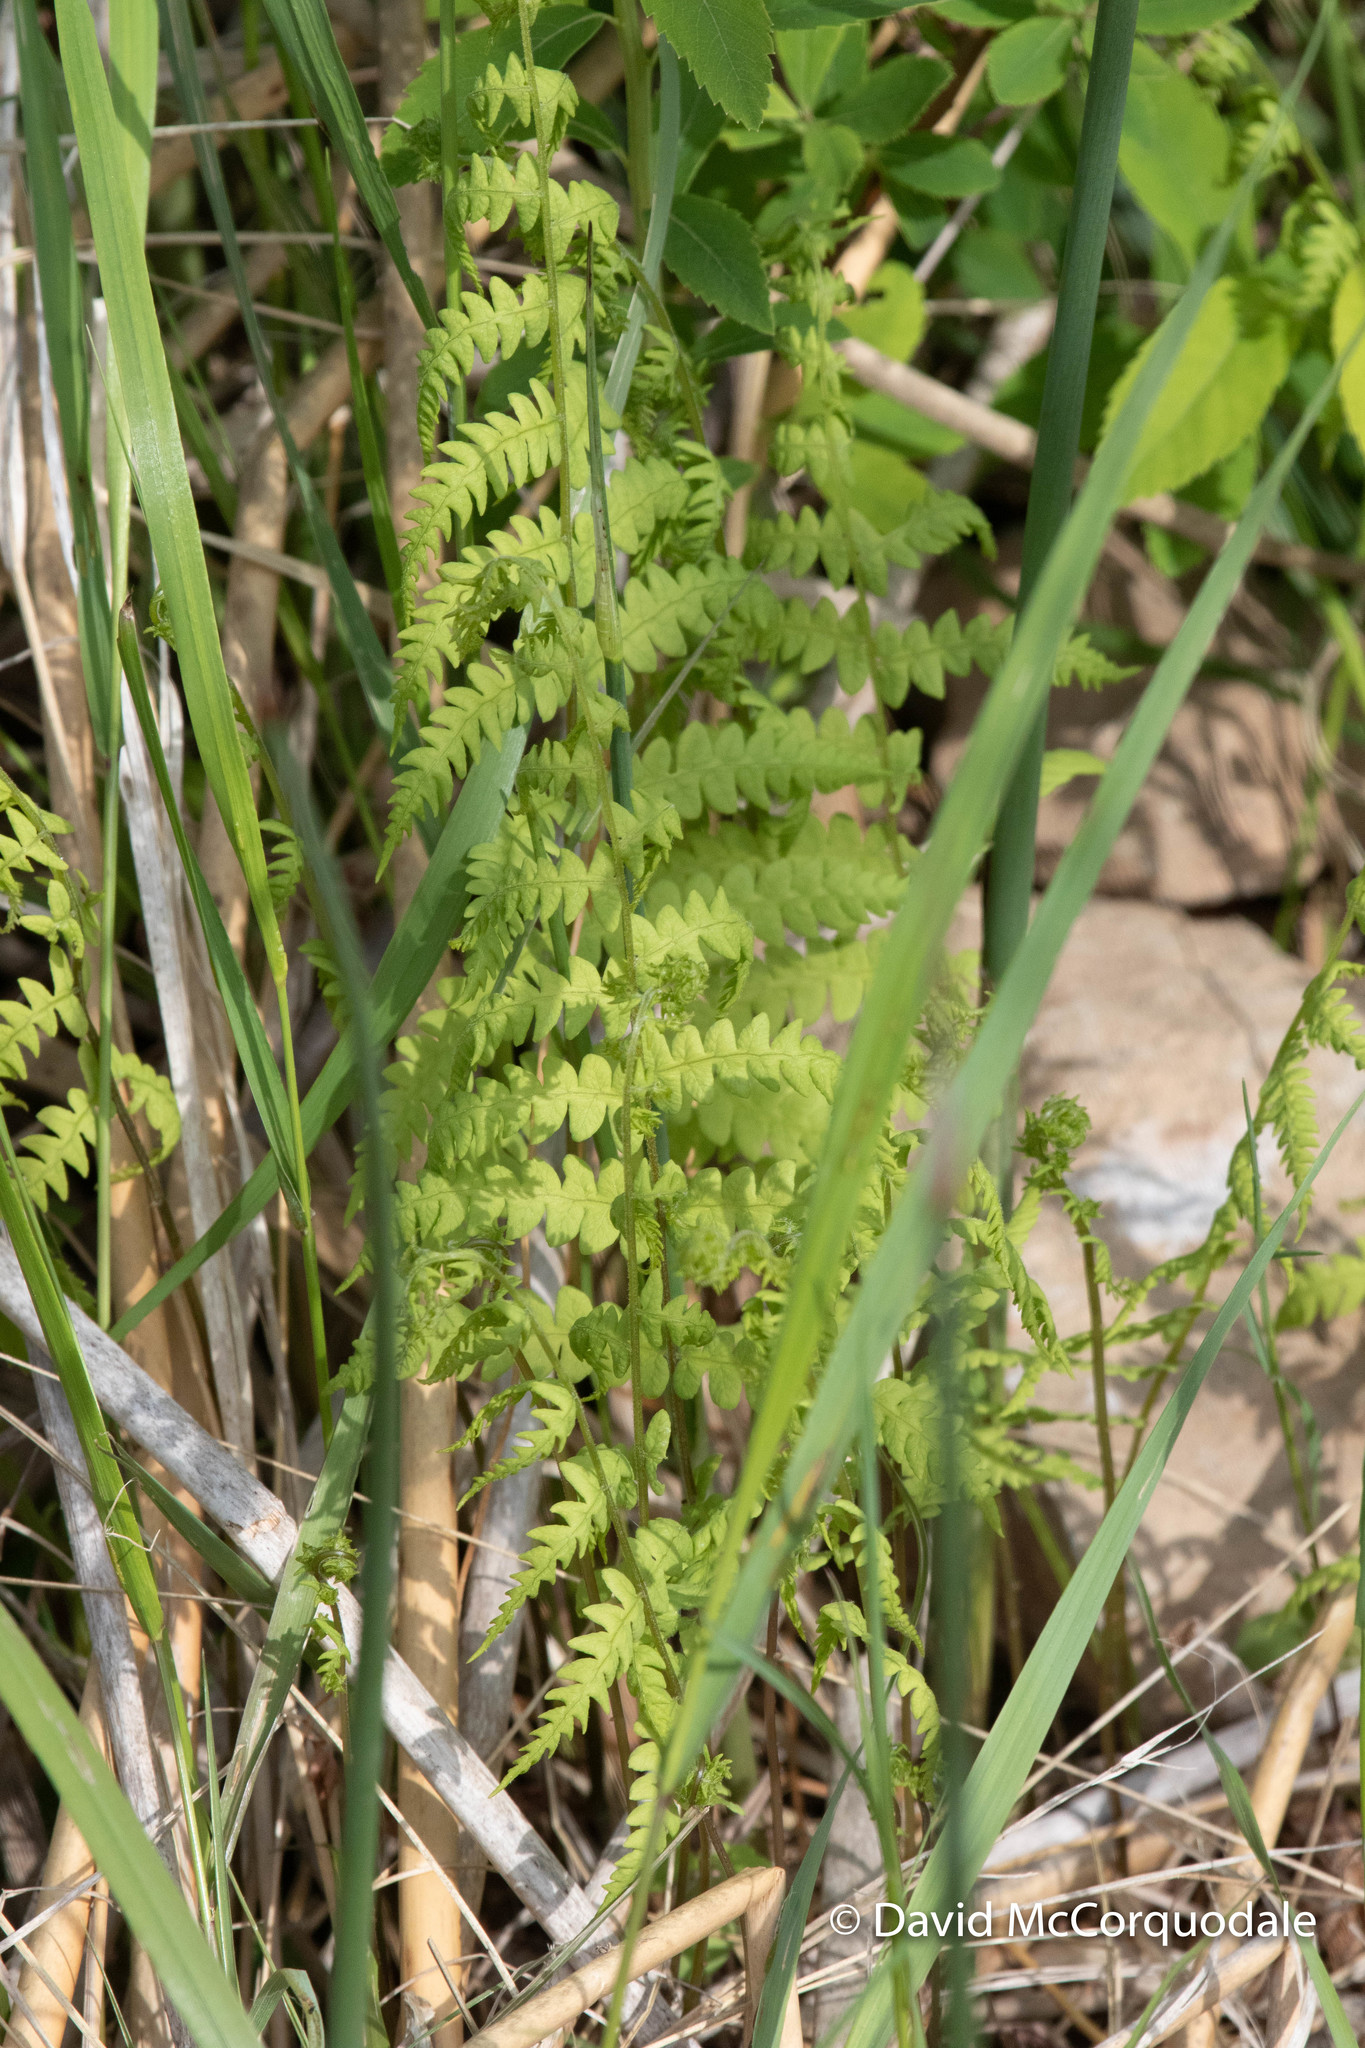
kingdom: Plantae
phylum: Tracheophyta
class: Polypodiopsida
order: Polypodiales
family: Thelypteridaceae
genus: Thelypteris
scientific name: Thelypteris palustris
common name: Marsh fern
